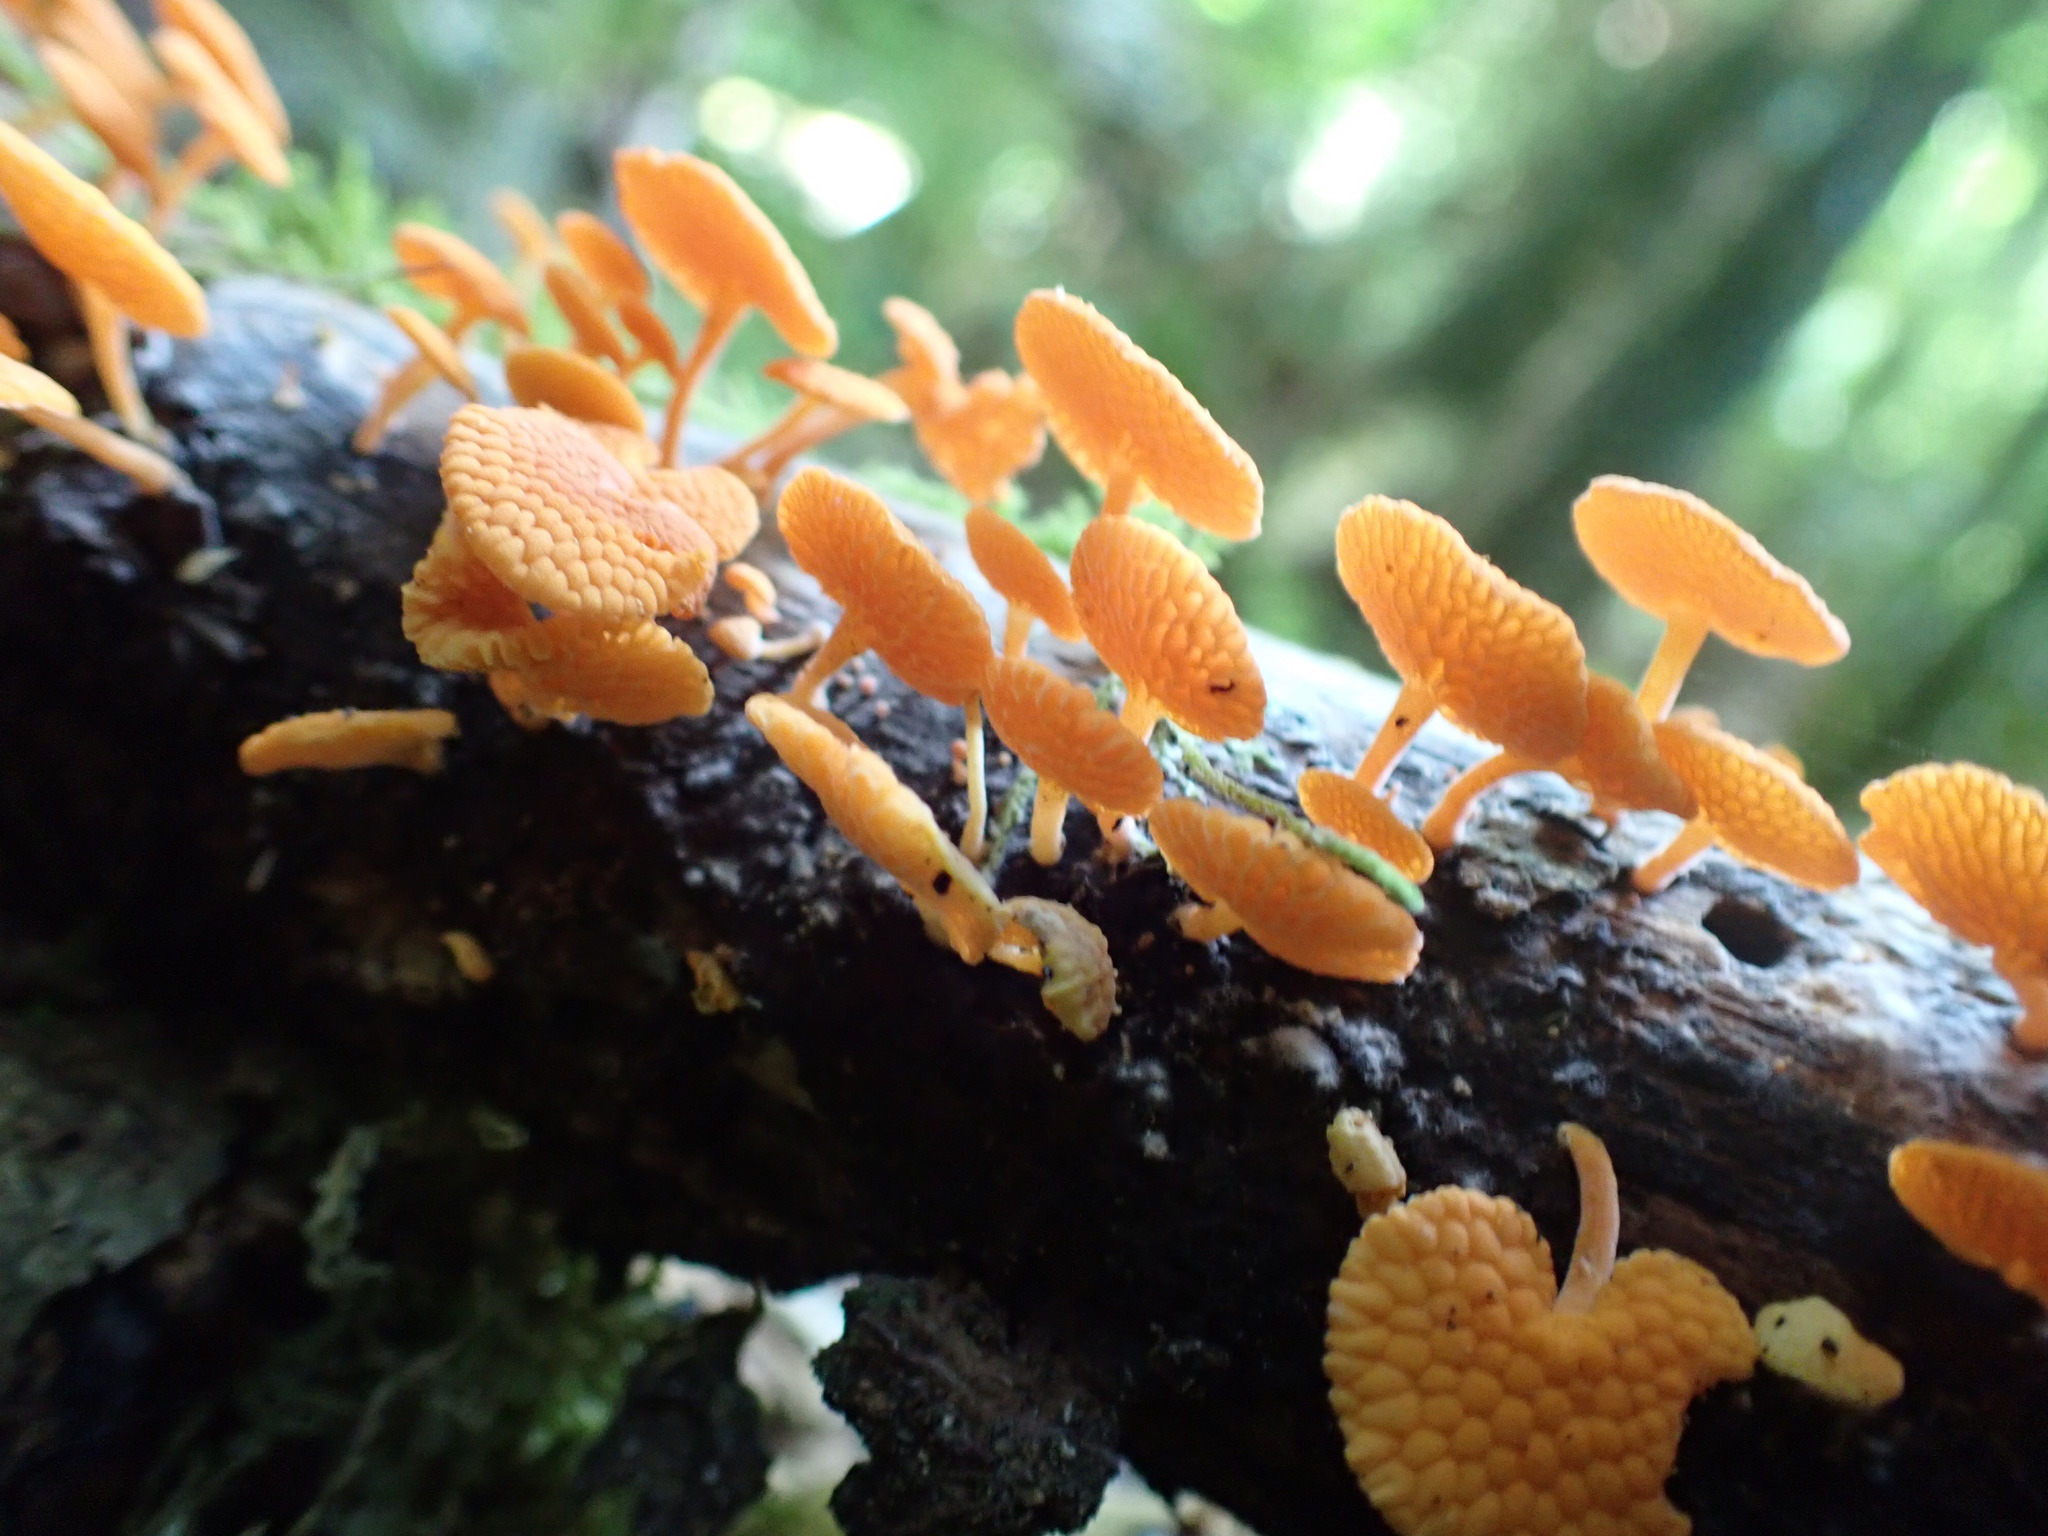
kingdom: Fungi
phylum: Basidiomycota
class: Agaricomycetes
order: Agaricales
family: Mycenaceae
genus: Favolaschia
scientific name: Favolaschia claudopus
